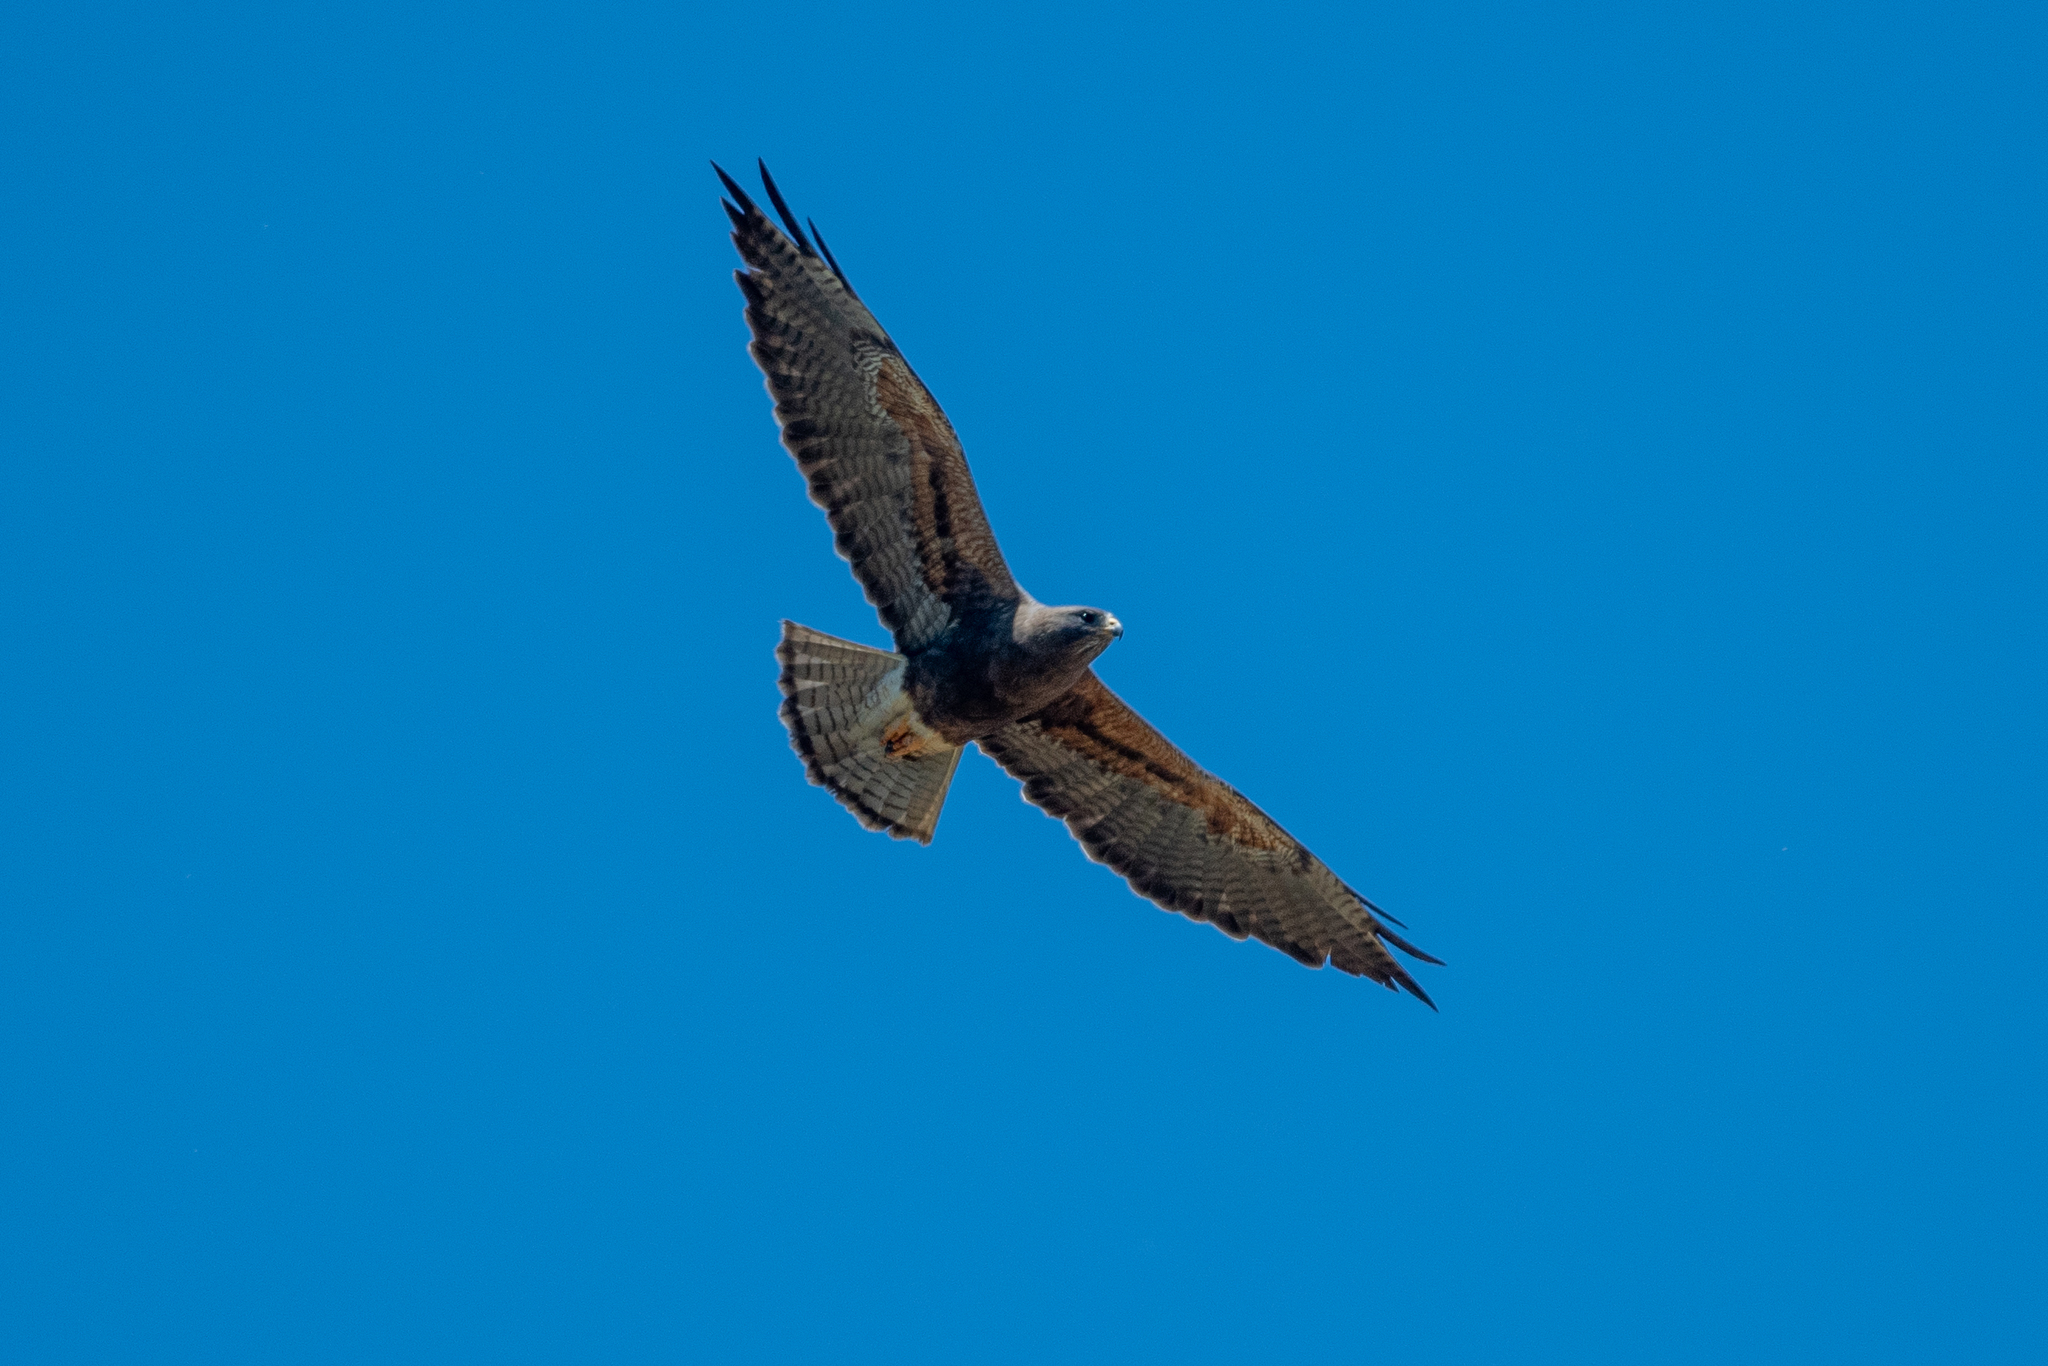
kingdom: Animalia
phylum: Chordata
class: Aves
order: Accipitriformes
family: Accipitridae
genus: Buteo
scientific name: Buteo swainsoni
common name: Swainson's hawk
